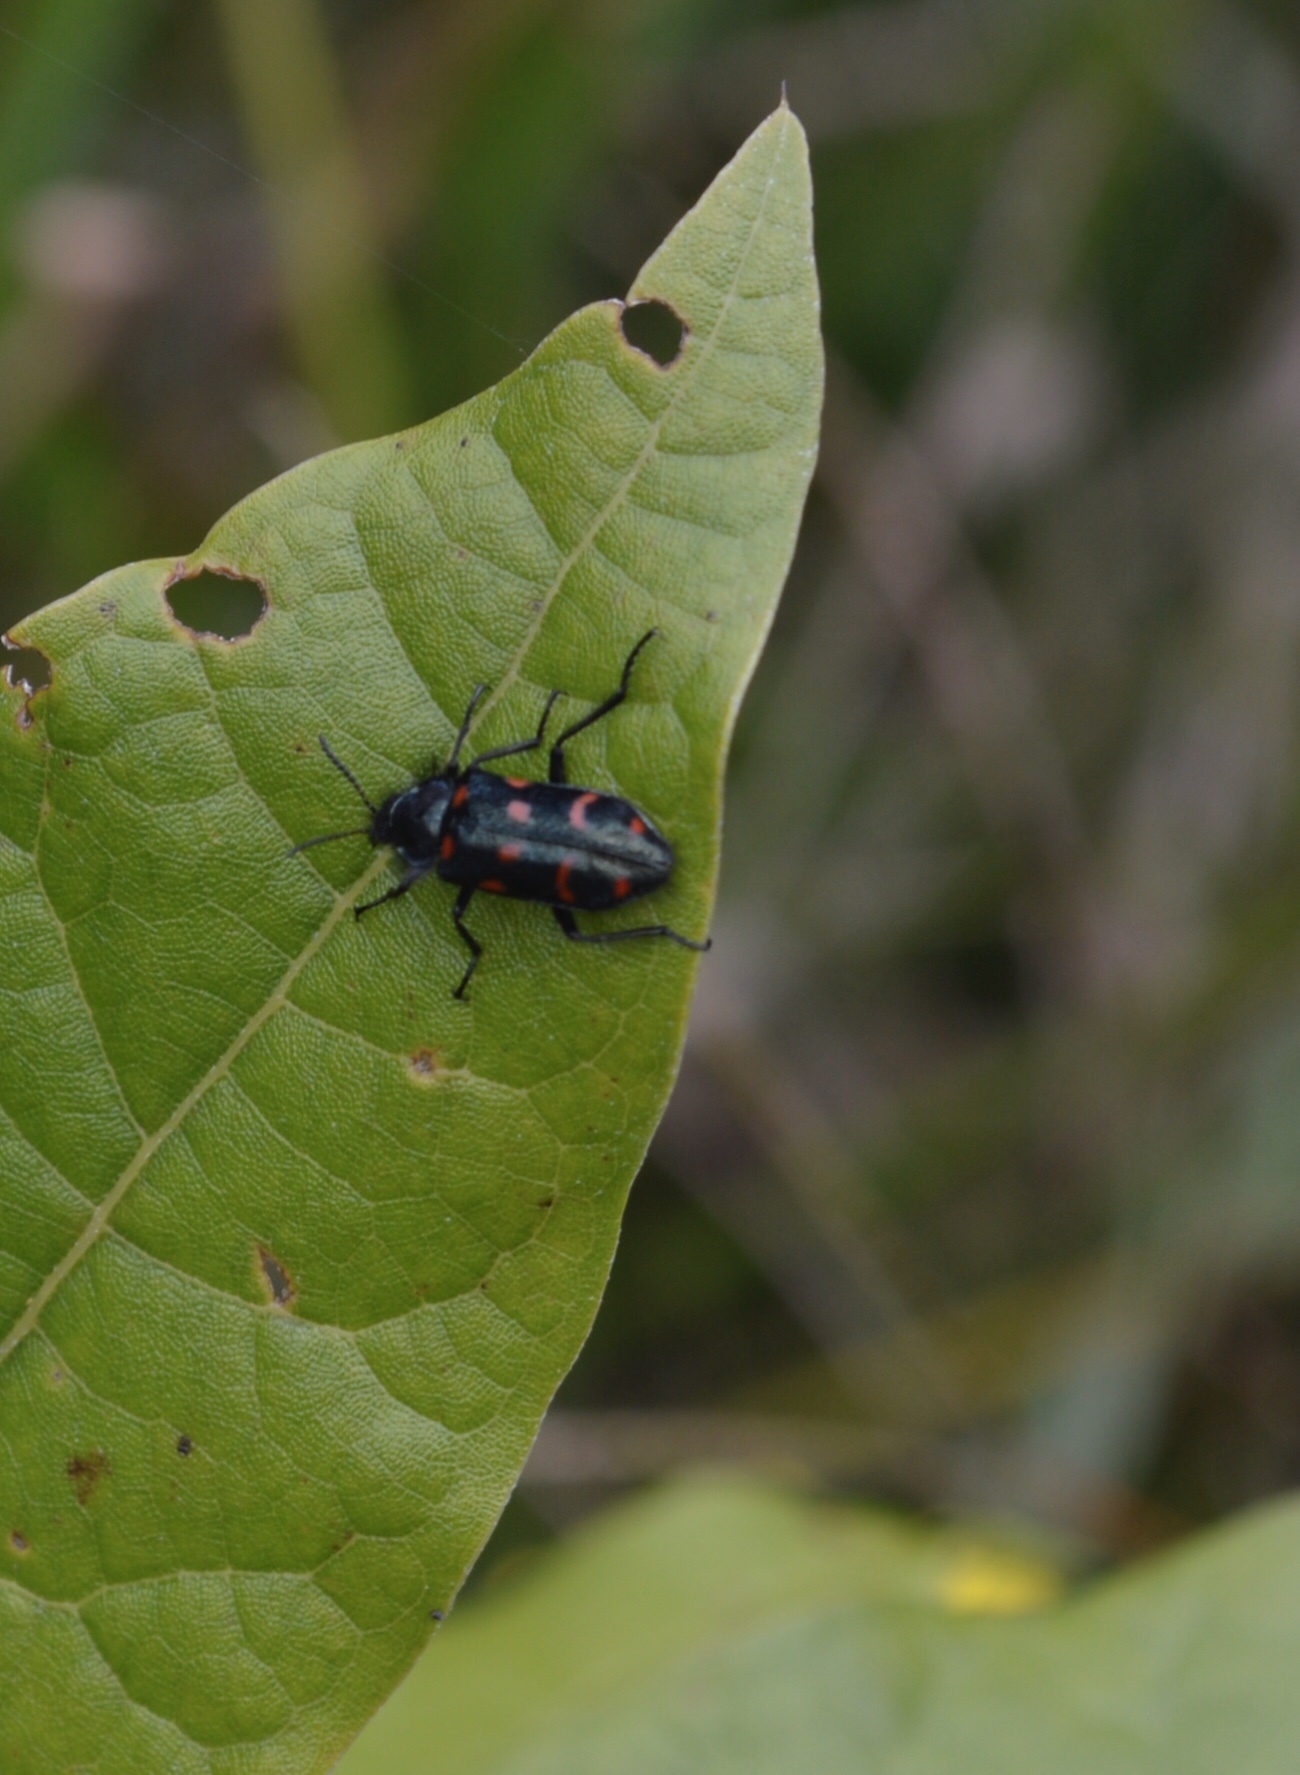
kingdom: Animalia
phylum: Arthropoda
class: Insecta
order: Coleoptera
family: Melyridae
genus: Astylus
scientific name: Astylus
